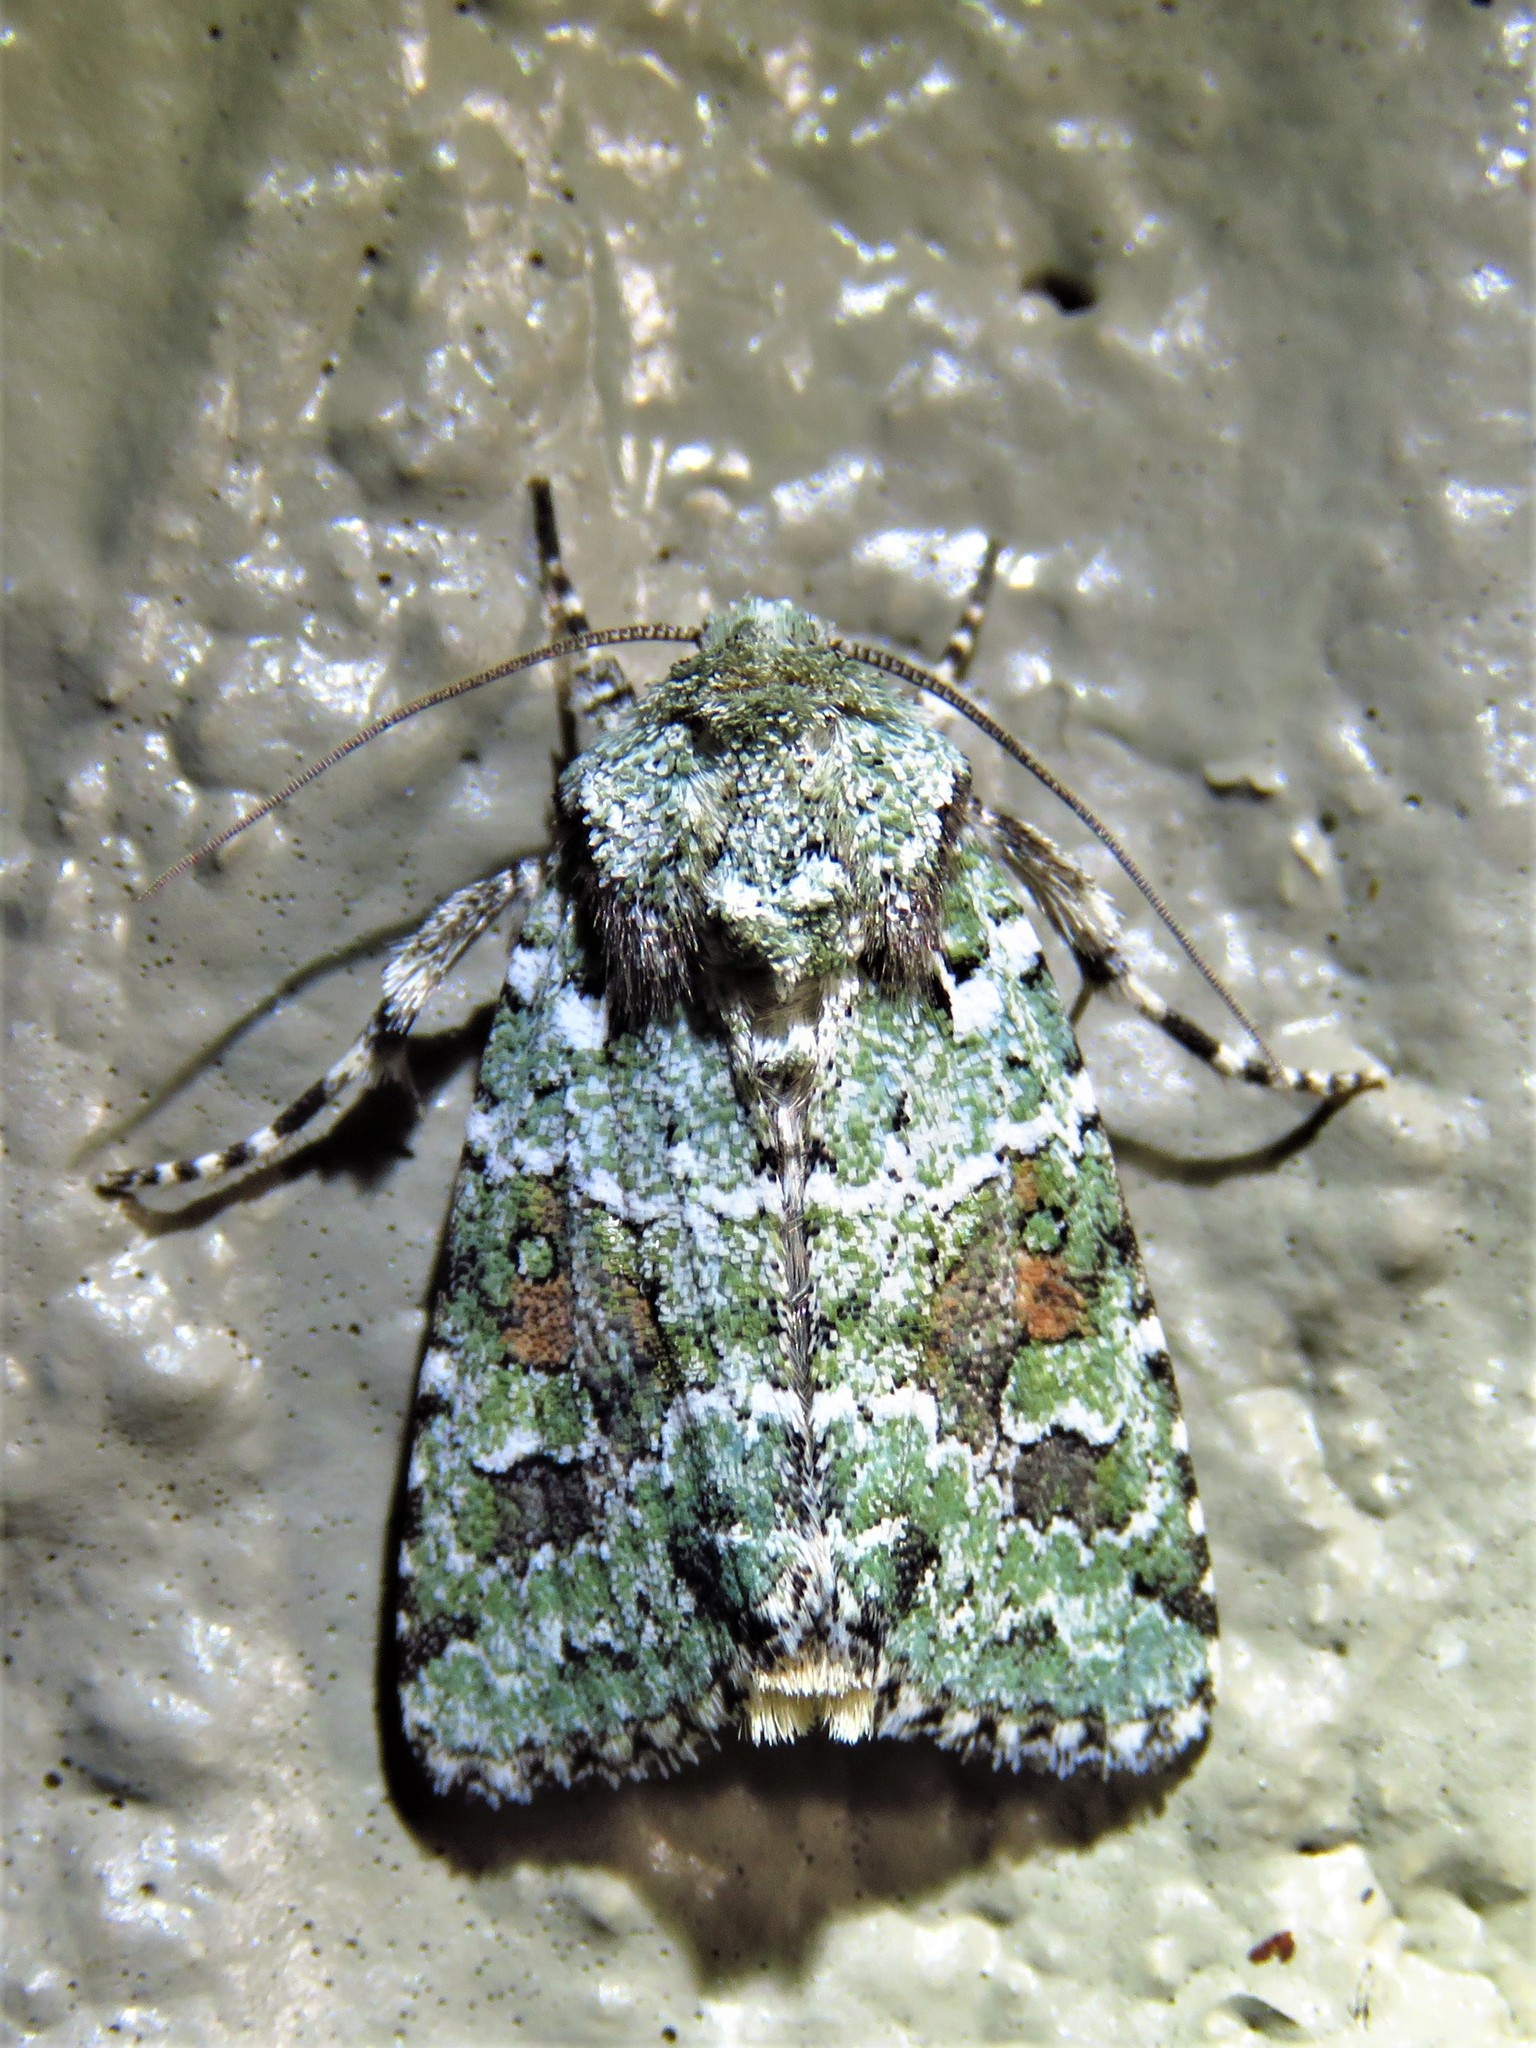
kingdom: Animalia
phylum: Arthropoda
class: Insecta
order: Lepidoptera
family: Noctuidae
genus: Lacinipolia
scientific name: Lacinipolia laudabilis
